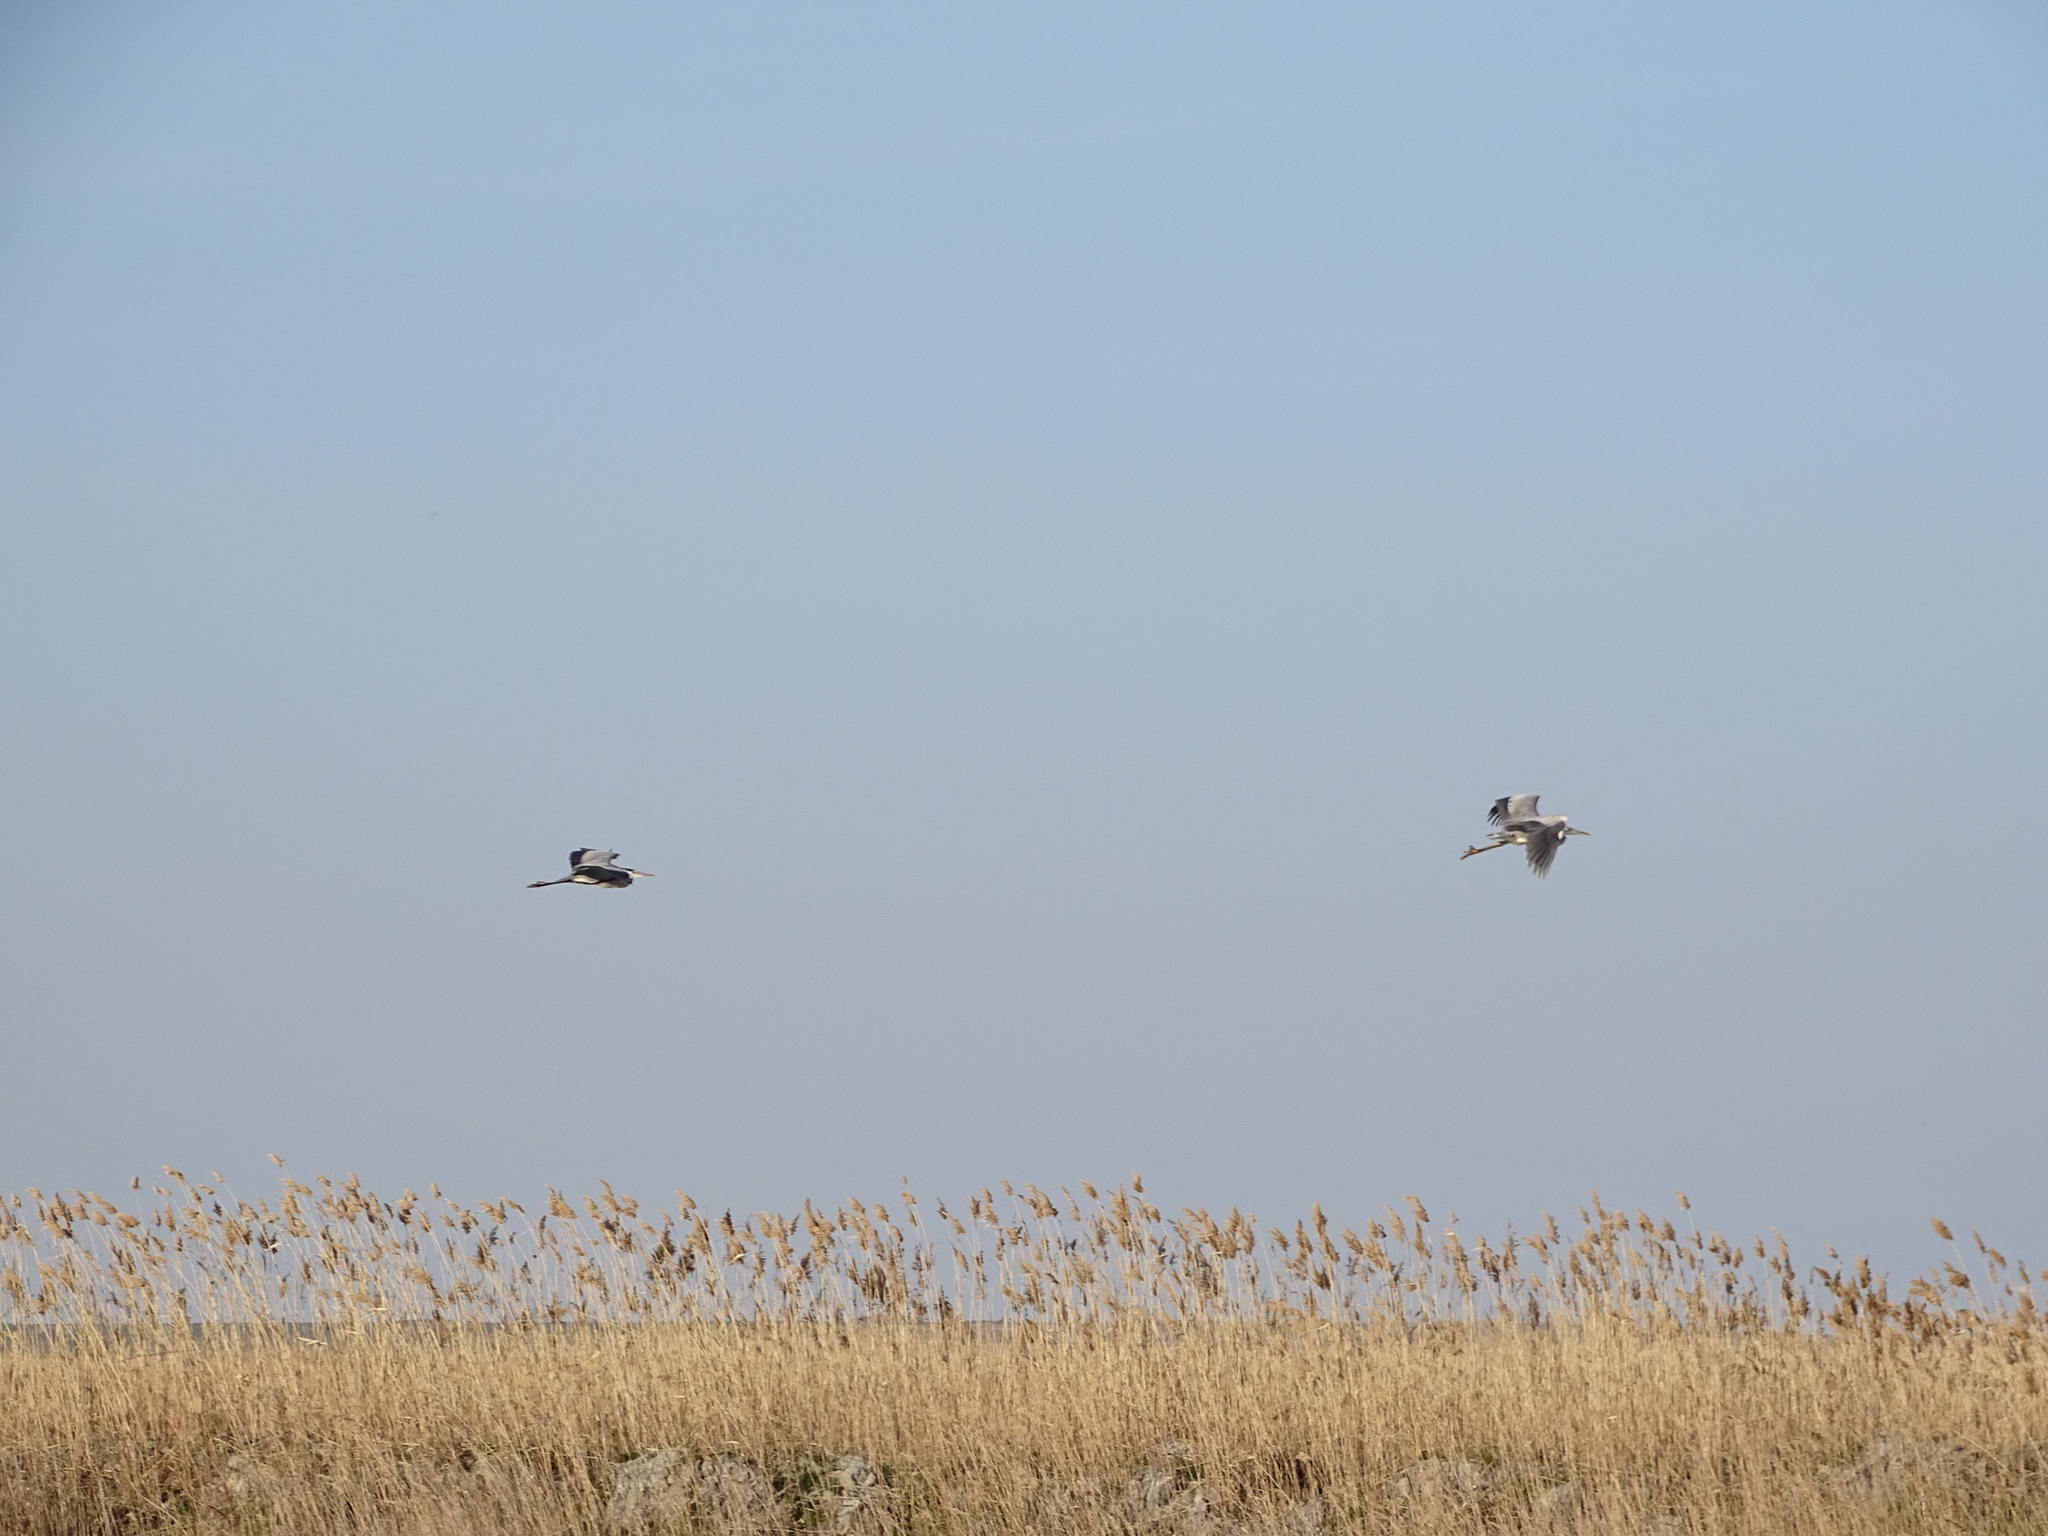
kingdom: Animalia
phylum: Chordata
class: Aves
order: Pelecaniformes
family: Ardeidae
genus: Ardea
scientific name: Ardea cinerea
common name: Grey heron
